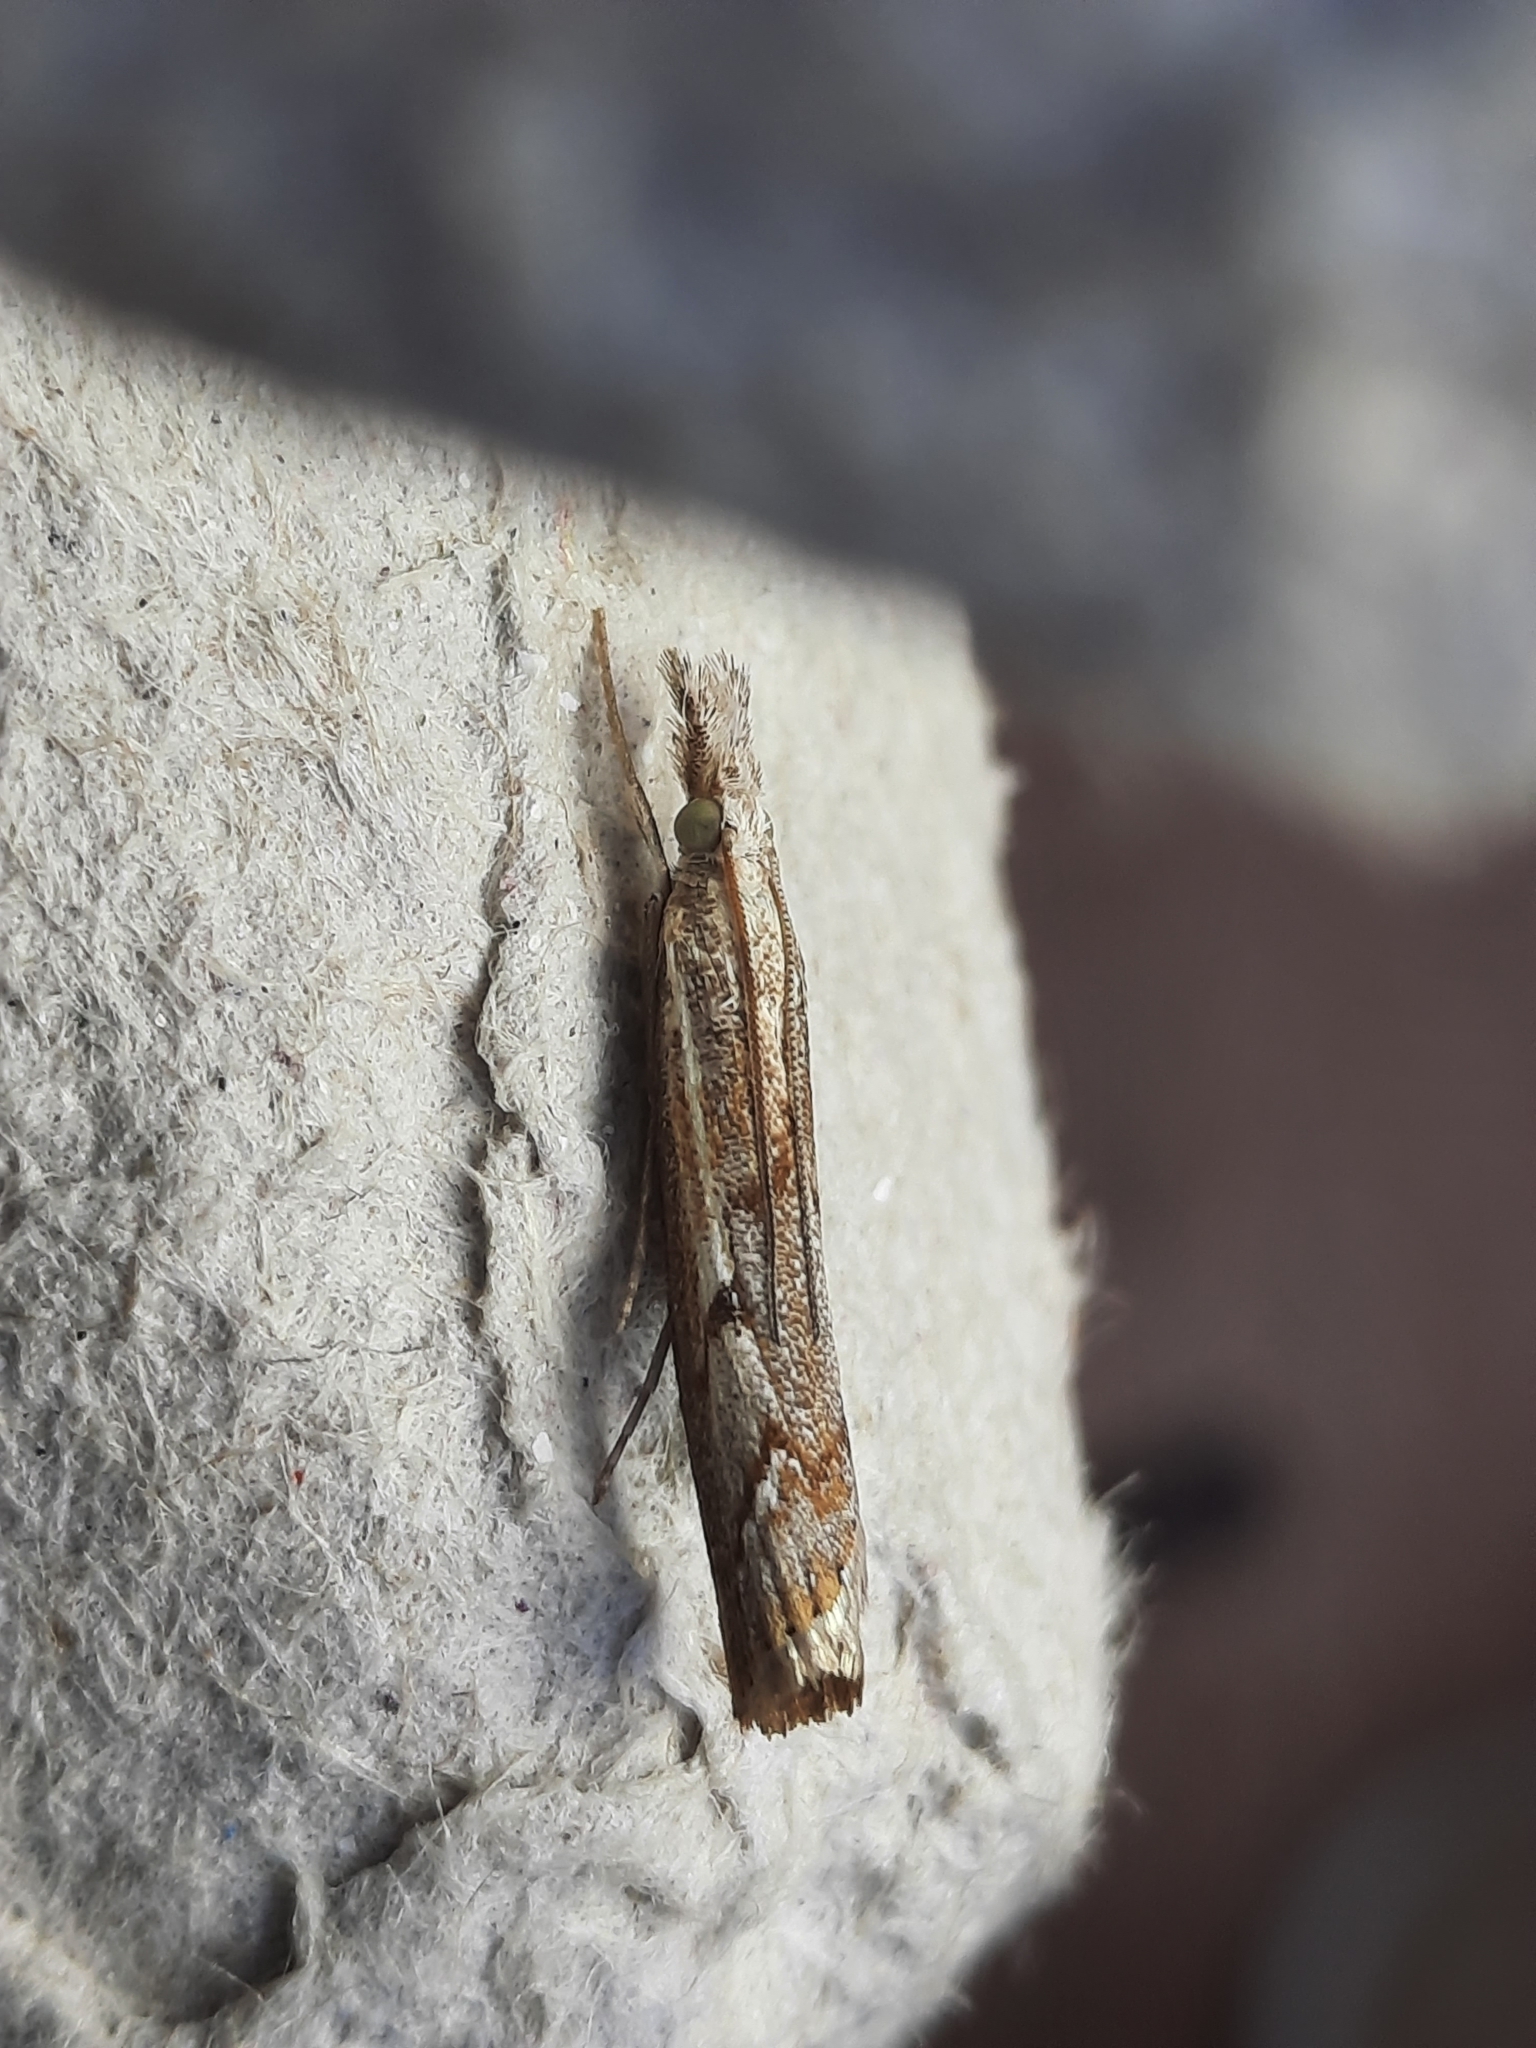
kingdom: Animalia
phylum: Arthropoda
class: Insecta
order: Lepidoptera
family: Crambidae
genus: Agriphila
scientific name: Agriphila geniculea
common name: Elbow-stripe grass-veneer
